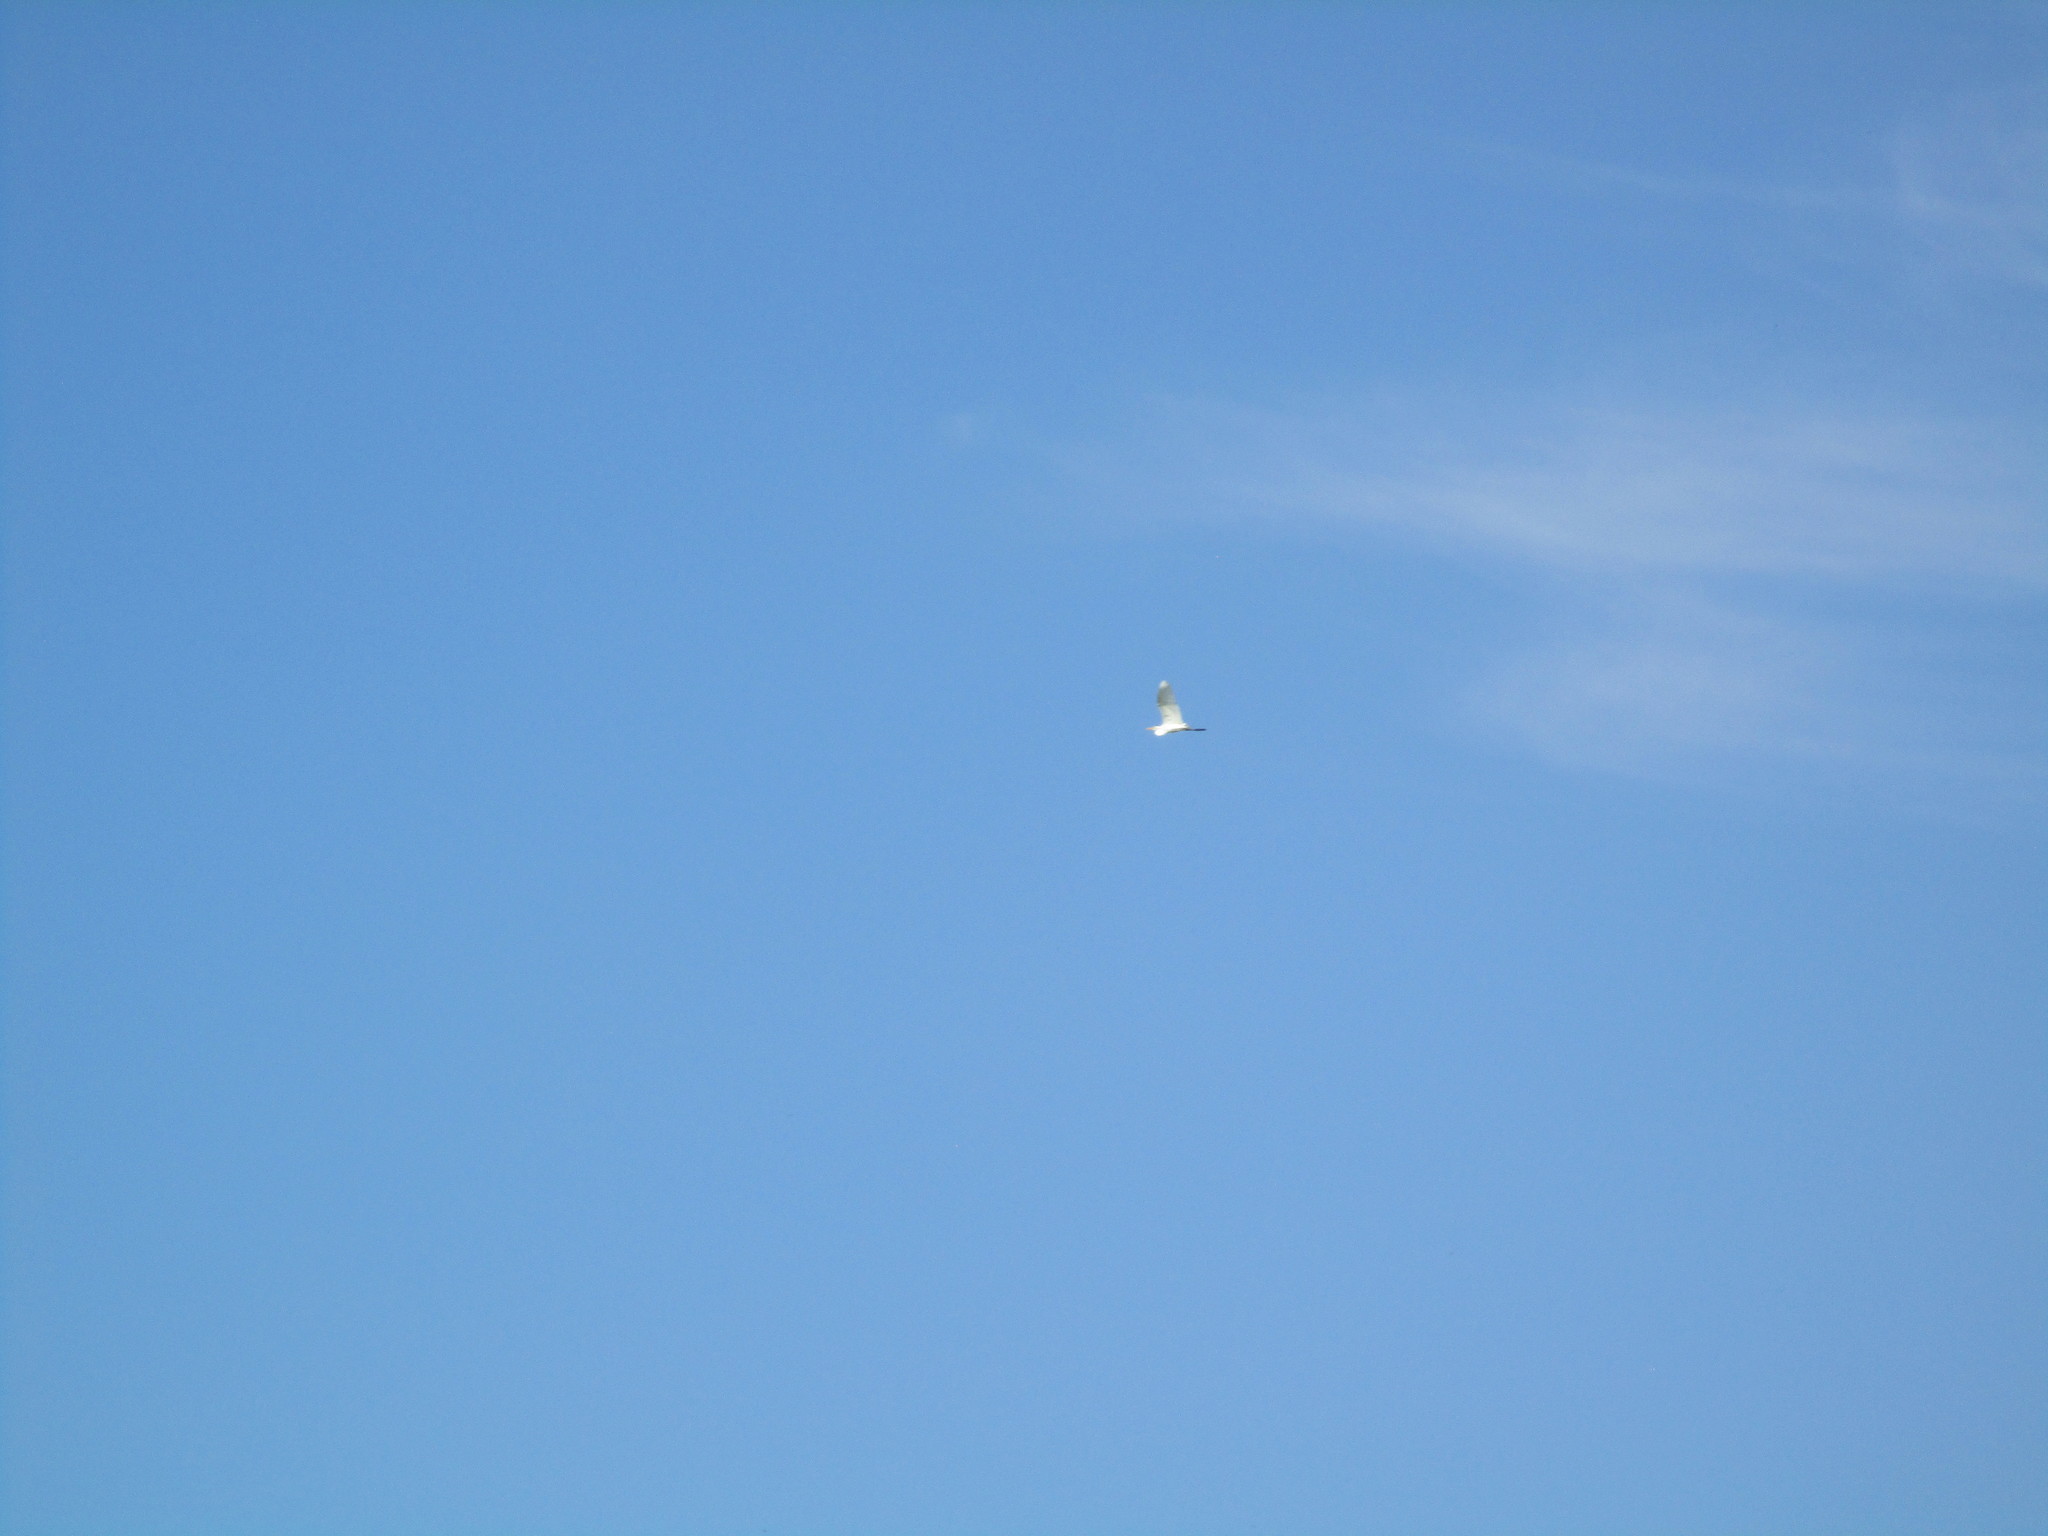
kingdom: Animalia
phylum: Chordata
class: Aves
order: Pelecaniformes
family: Ardeidae
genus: Ardea
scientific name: Ardea alba
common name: Great egret
